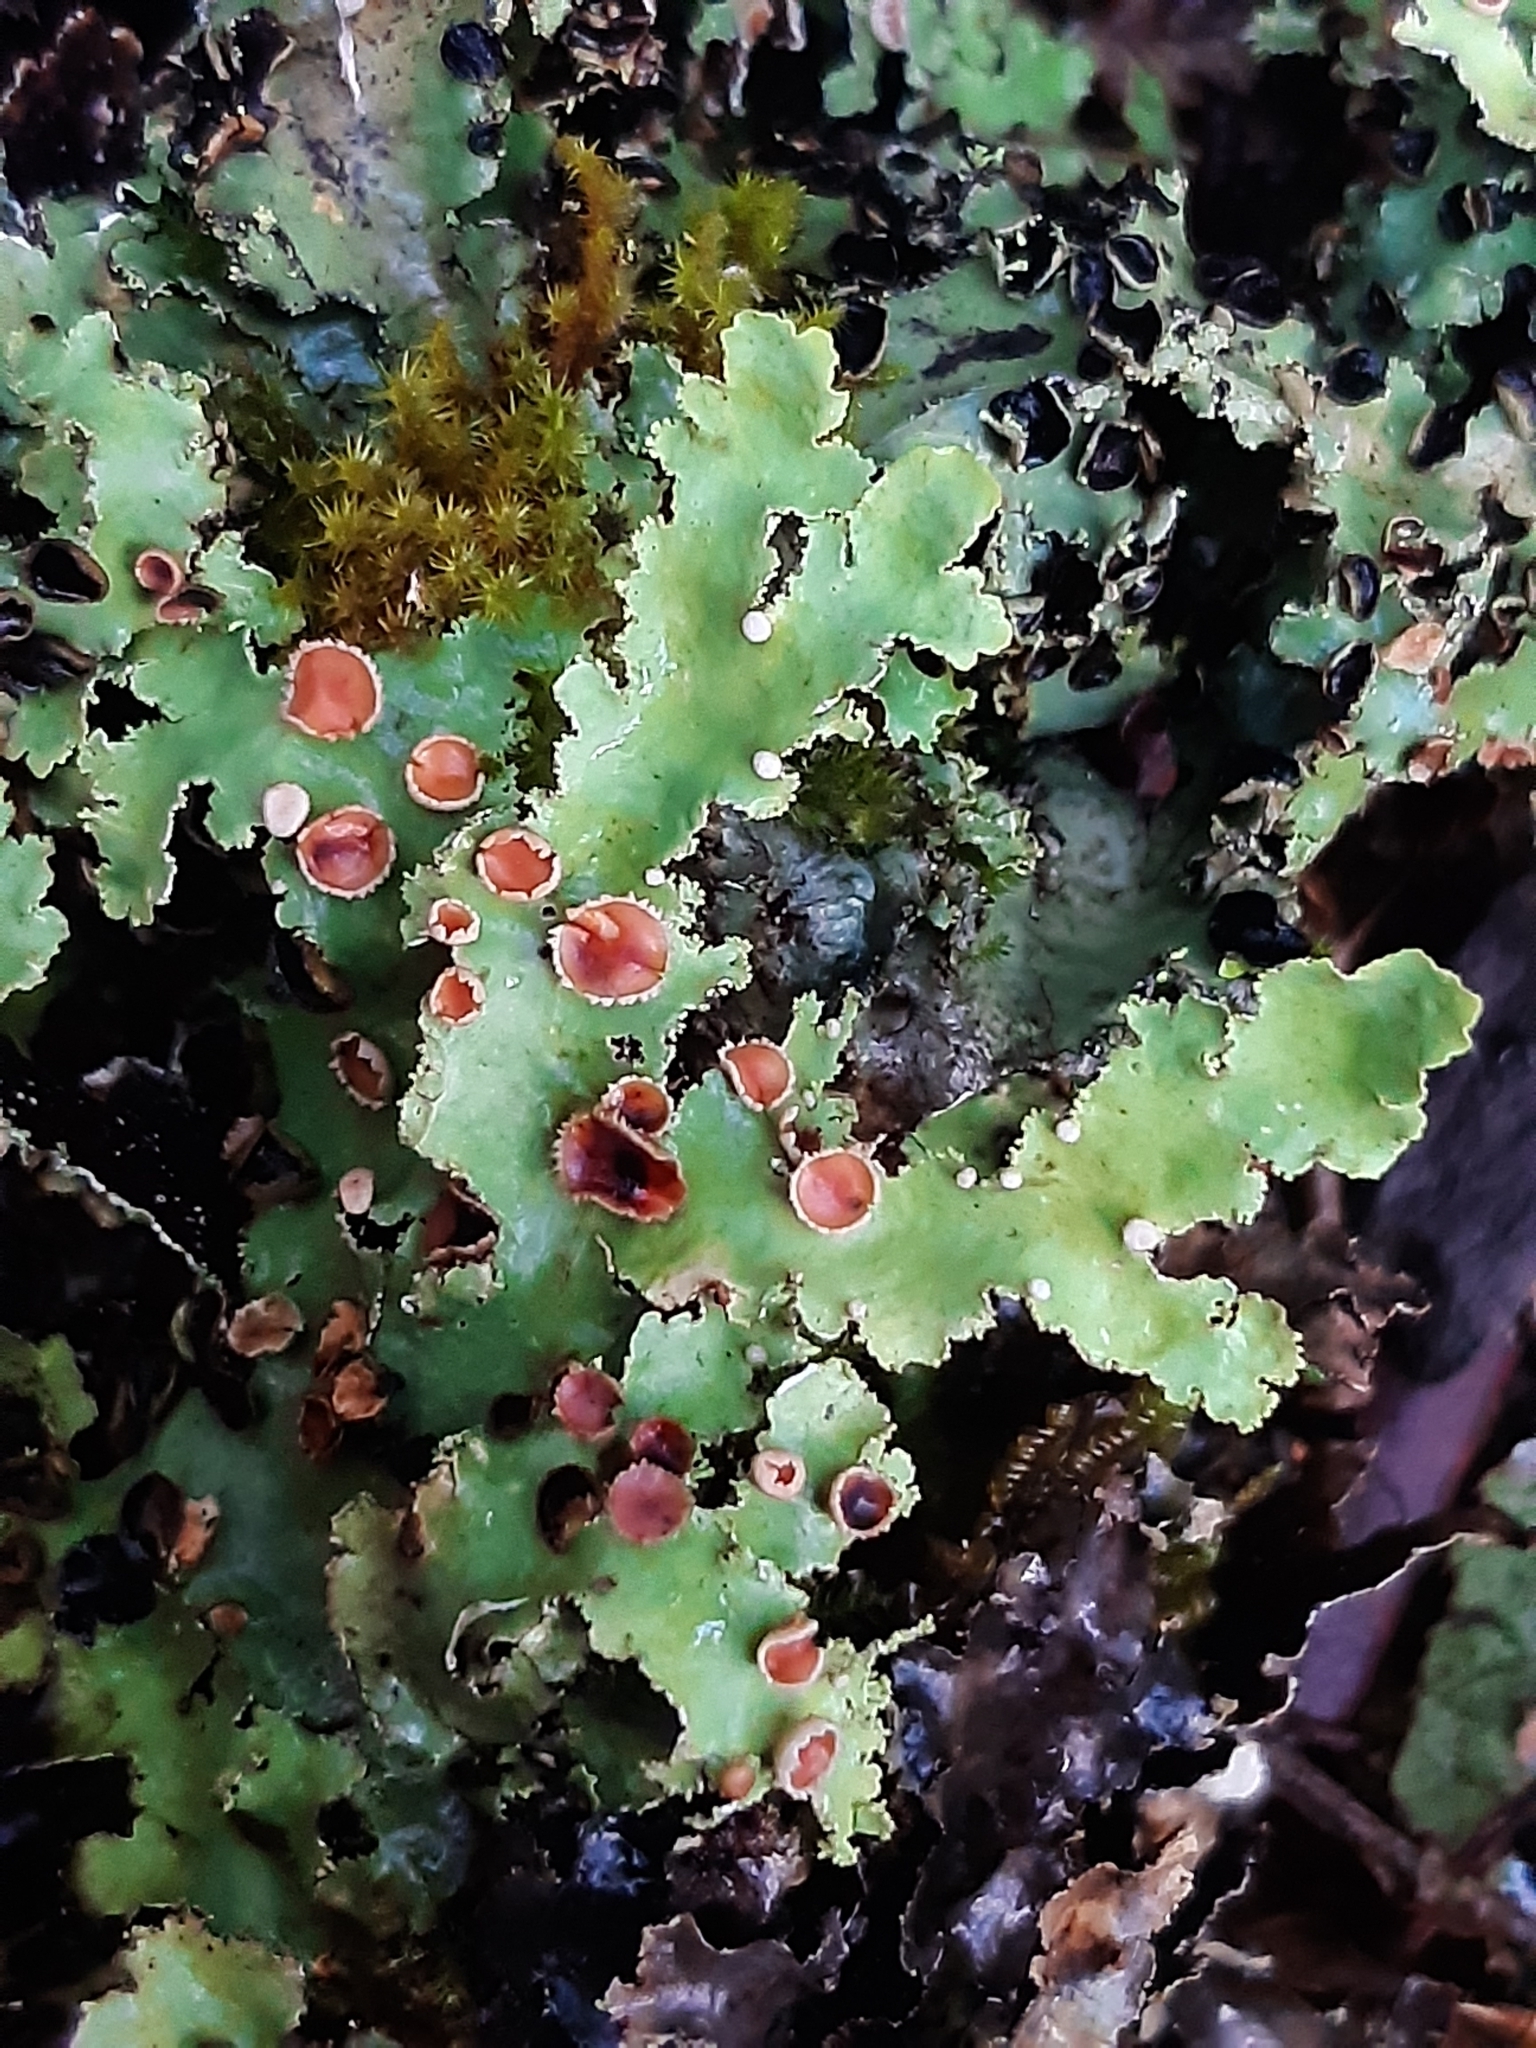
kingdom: Fungi
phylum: Ascomycota
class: Lecanoromycetes
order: Peltigerales
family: Lobariaceae
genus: Pseudocyphellaria
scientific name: Pseudocyphellaria glabra
